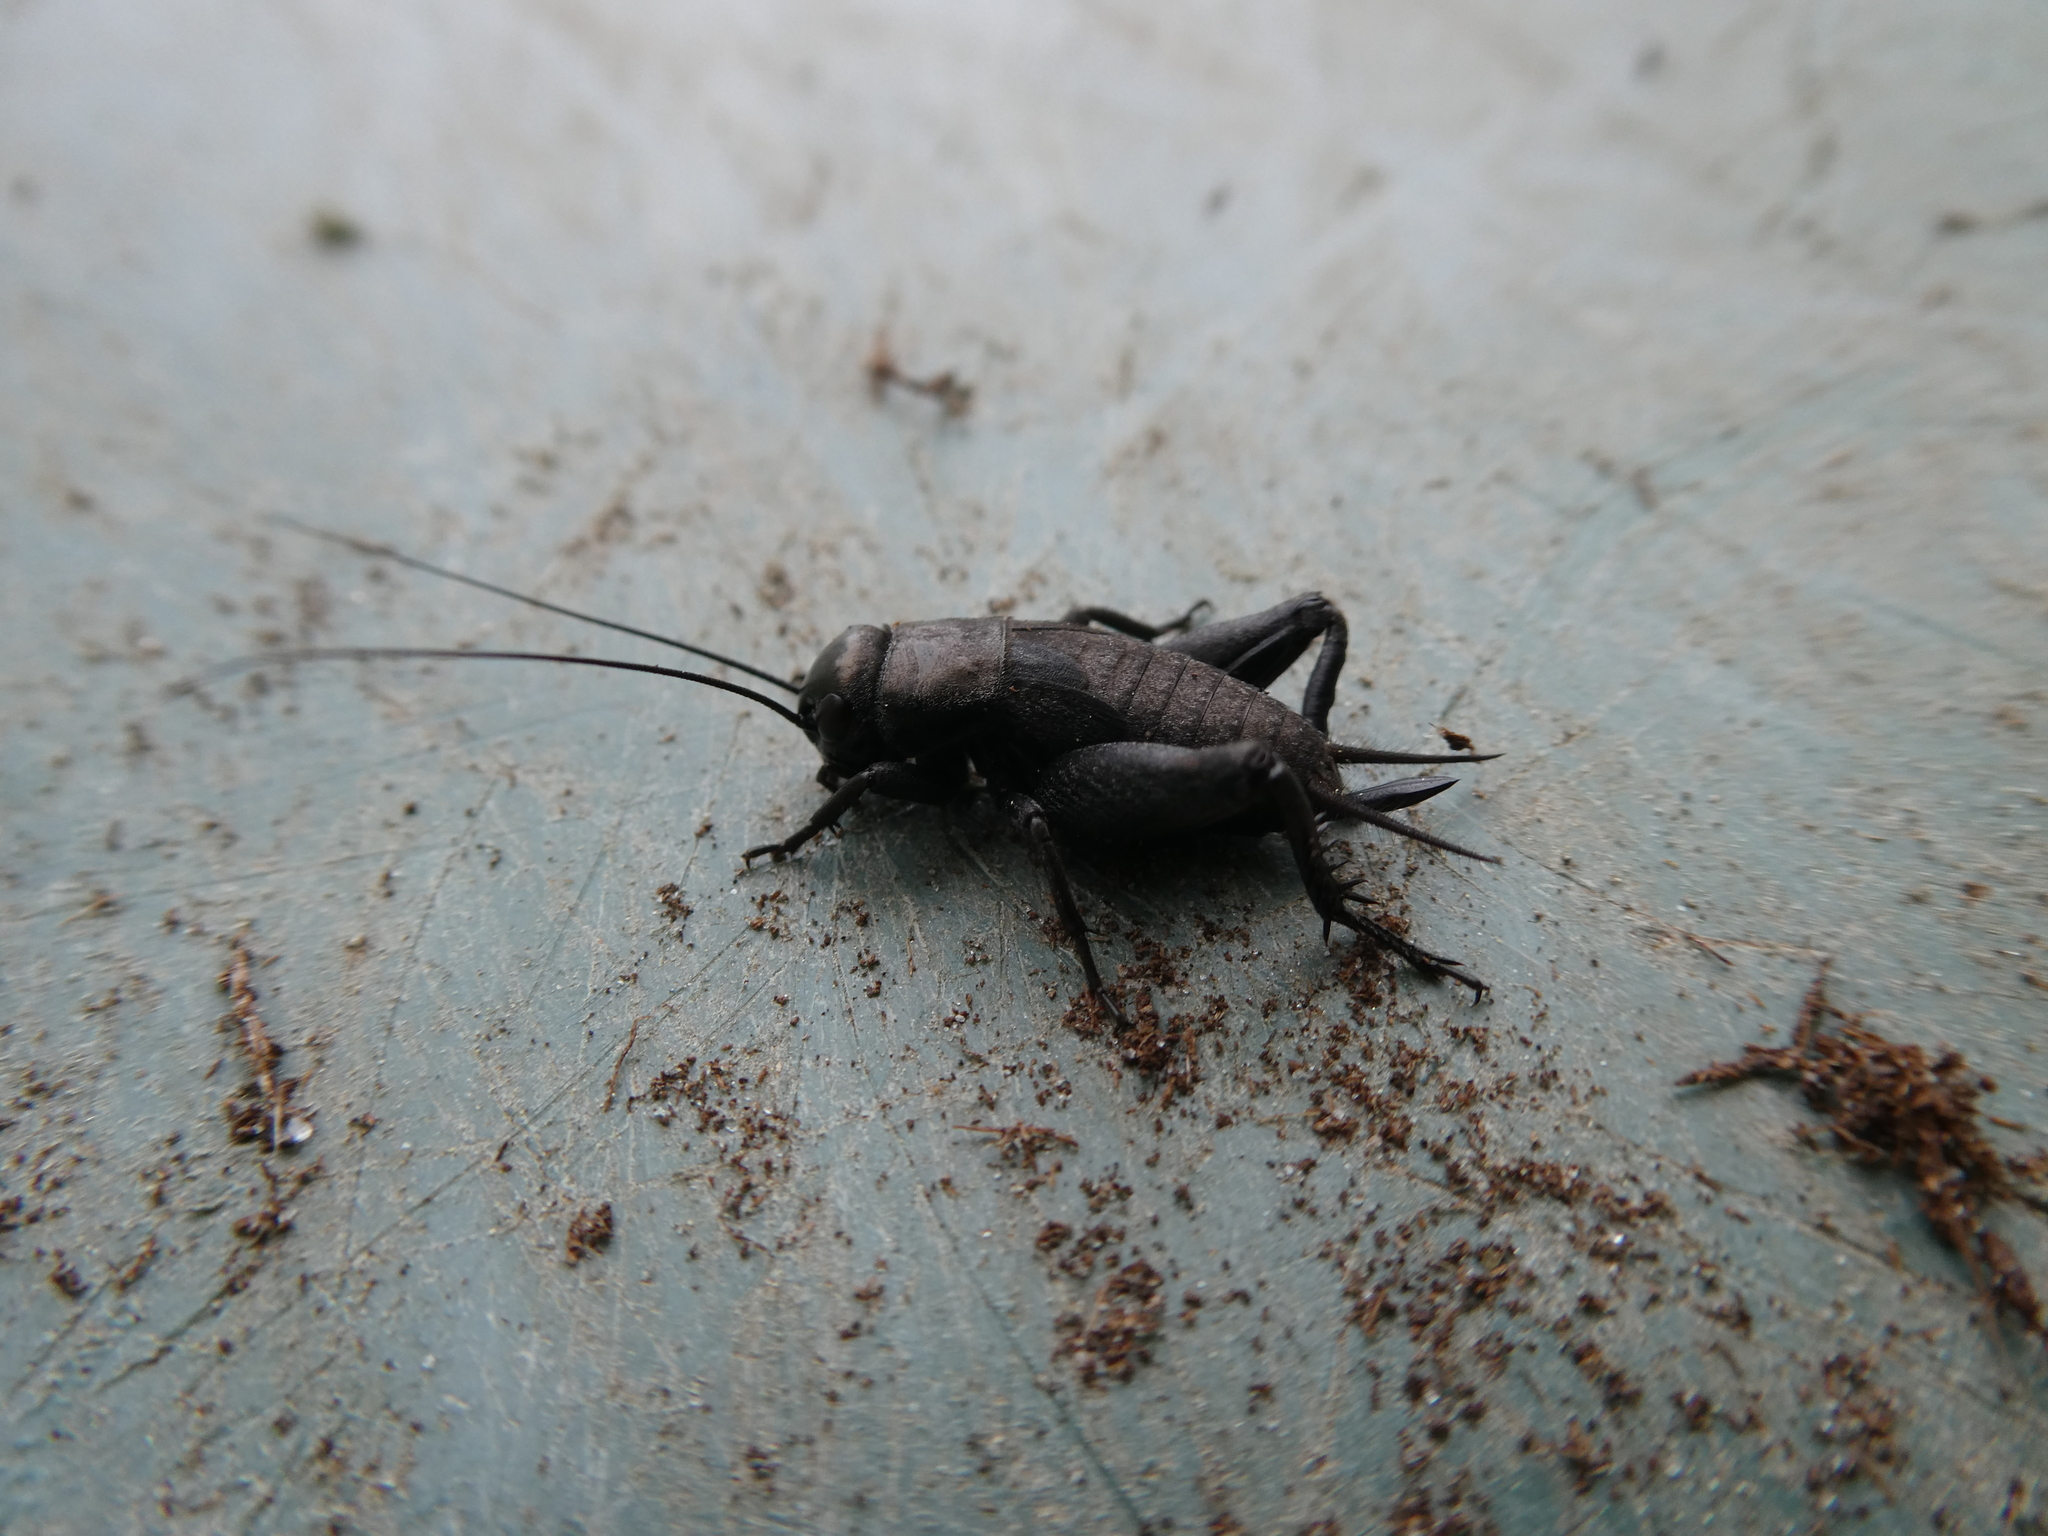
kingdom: Animalia
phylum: Arthropoda
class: Insecta
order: Orthoptera
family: Gryllidae
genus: Gryllus
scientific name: Gryllus veletis
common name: Spring field cricket
